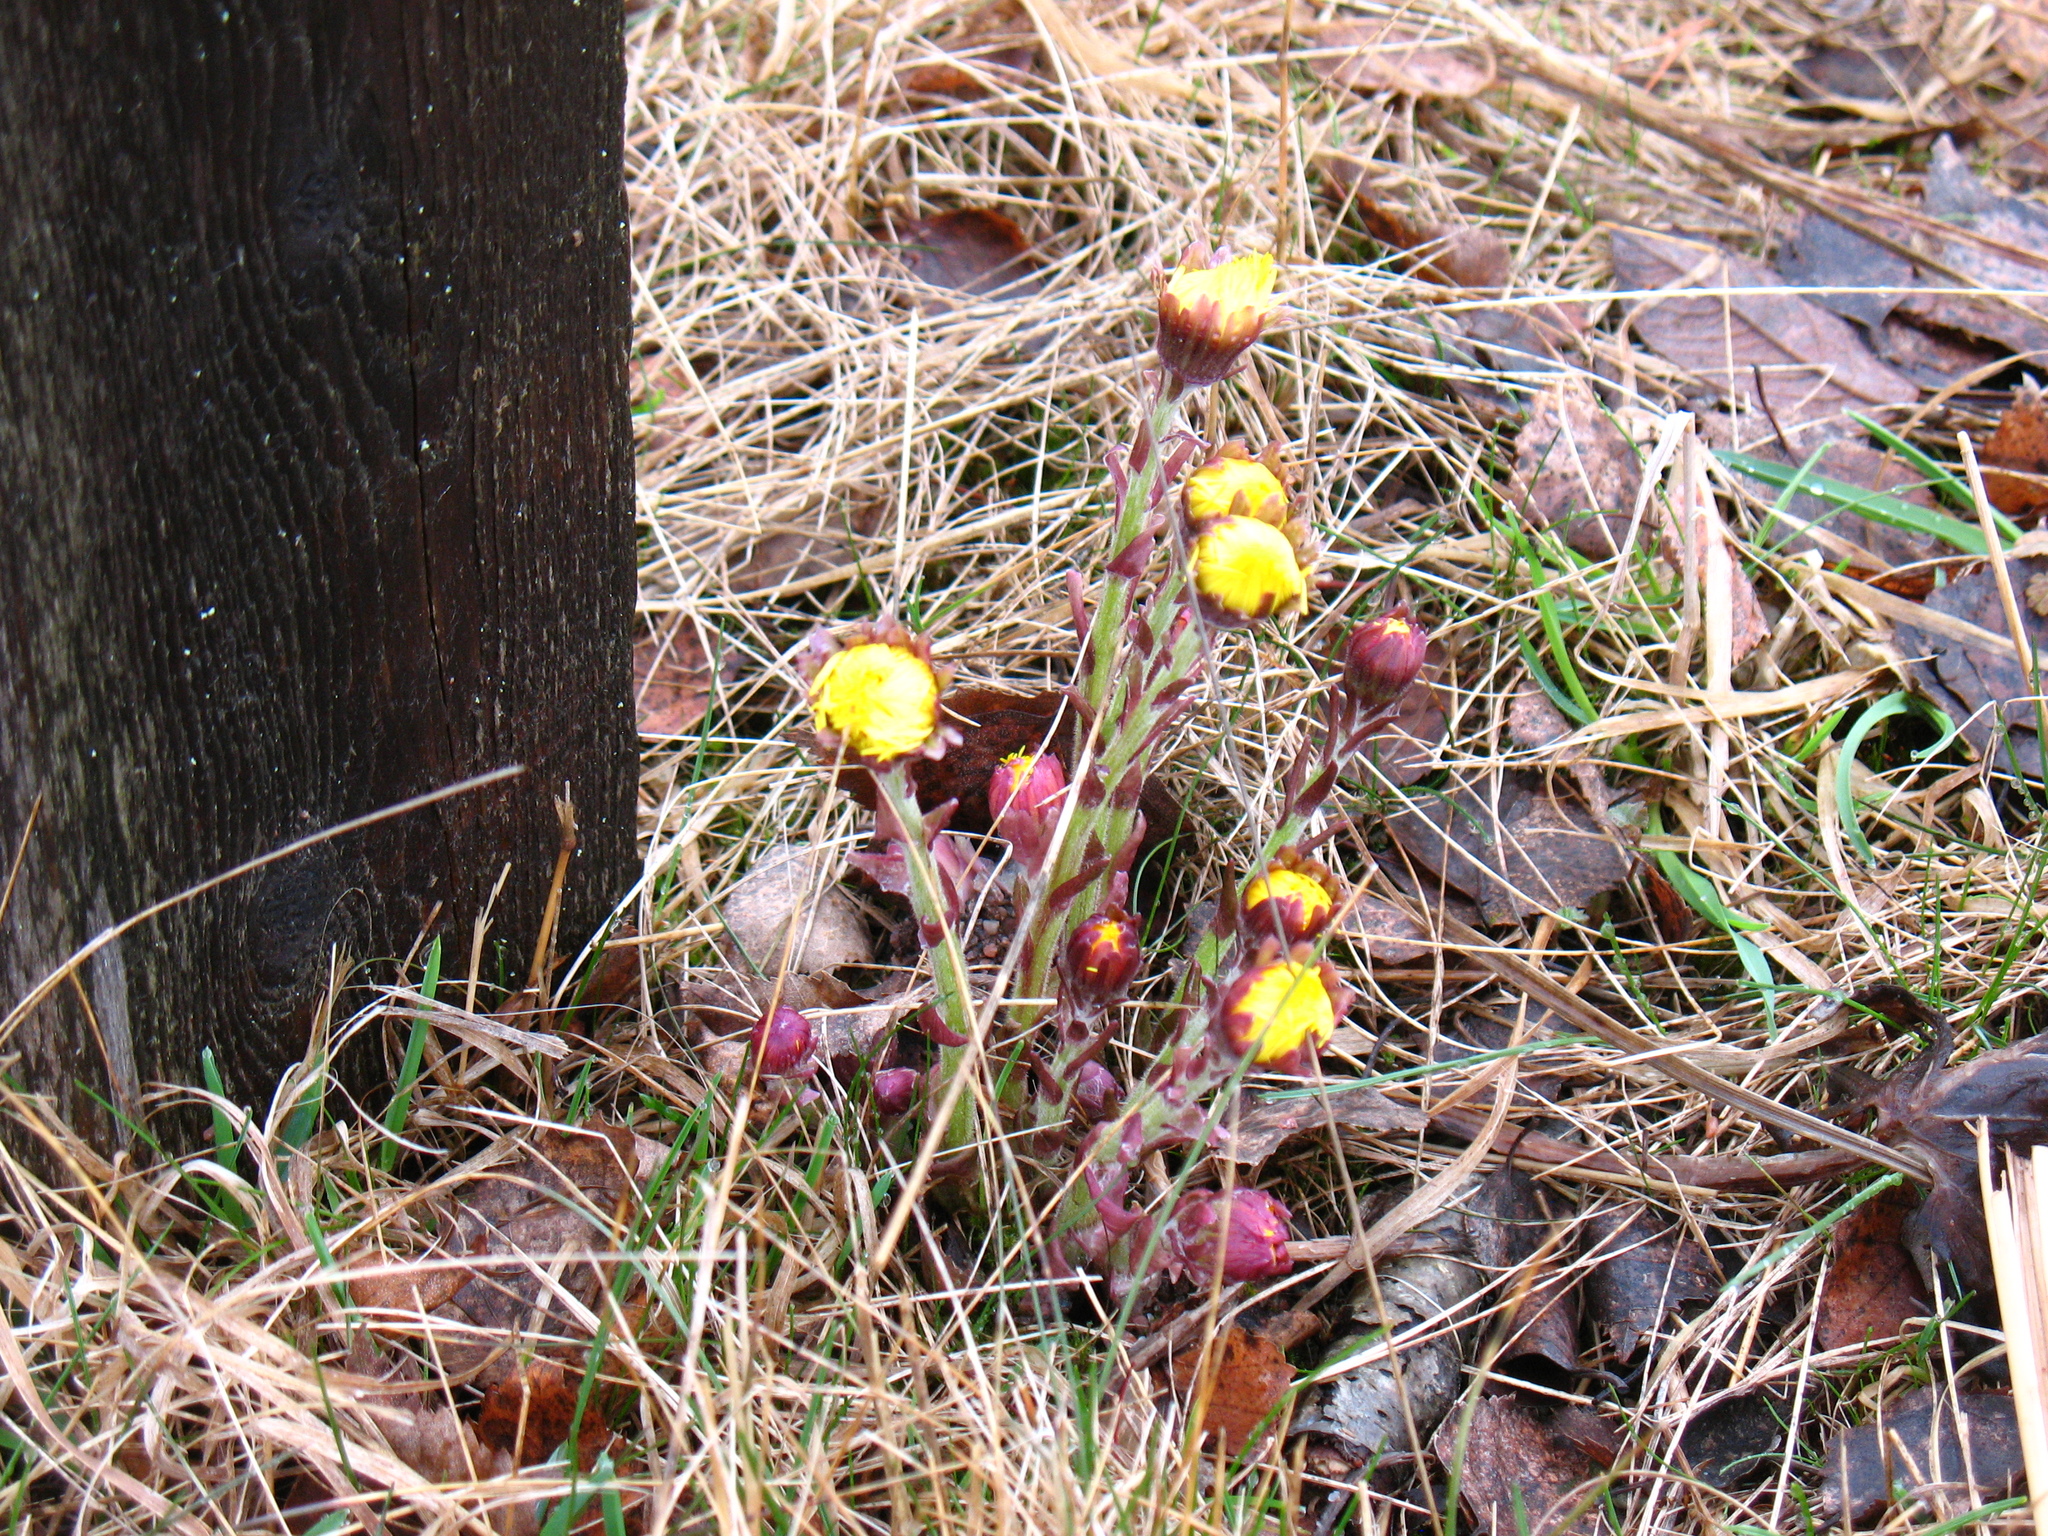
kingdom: Plantae
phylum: Tracheophyta
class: Magnoliopsida
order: Asterales
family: Asteraceae
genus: Tussilago
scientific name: Tussilago farfara
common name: Coltsfoot
